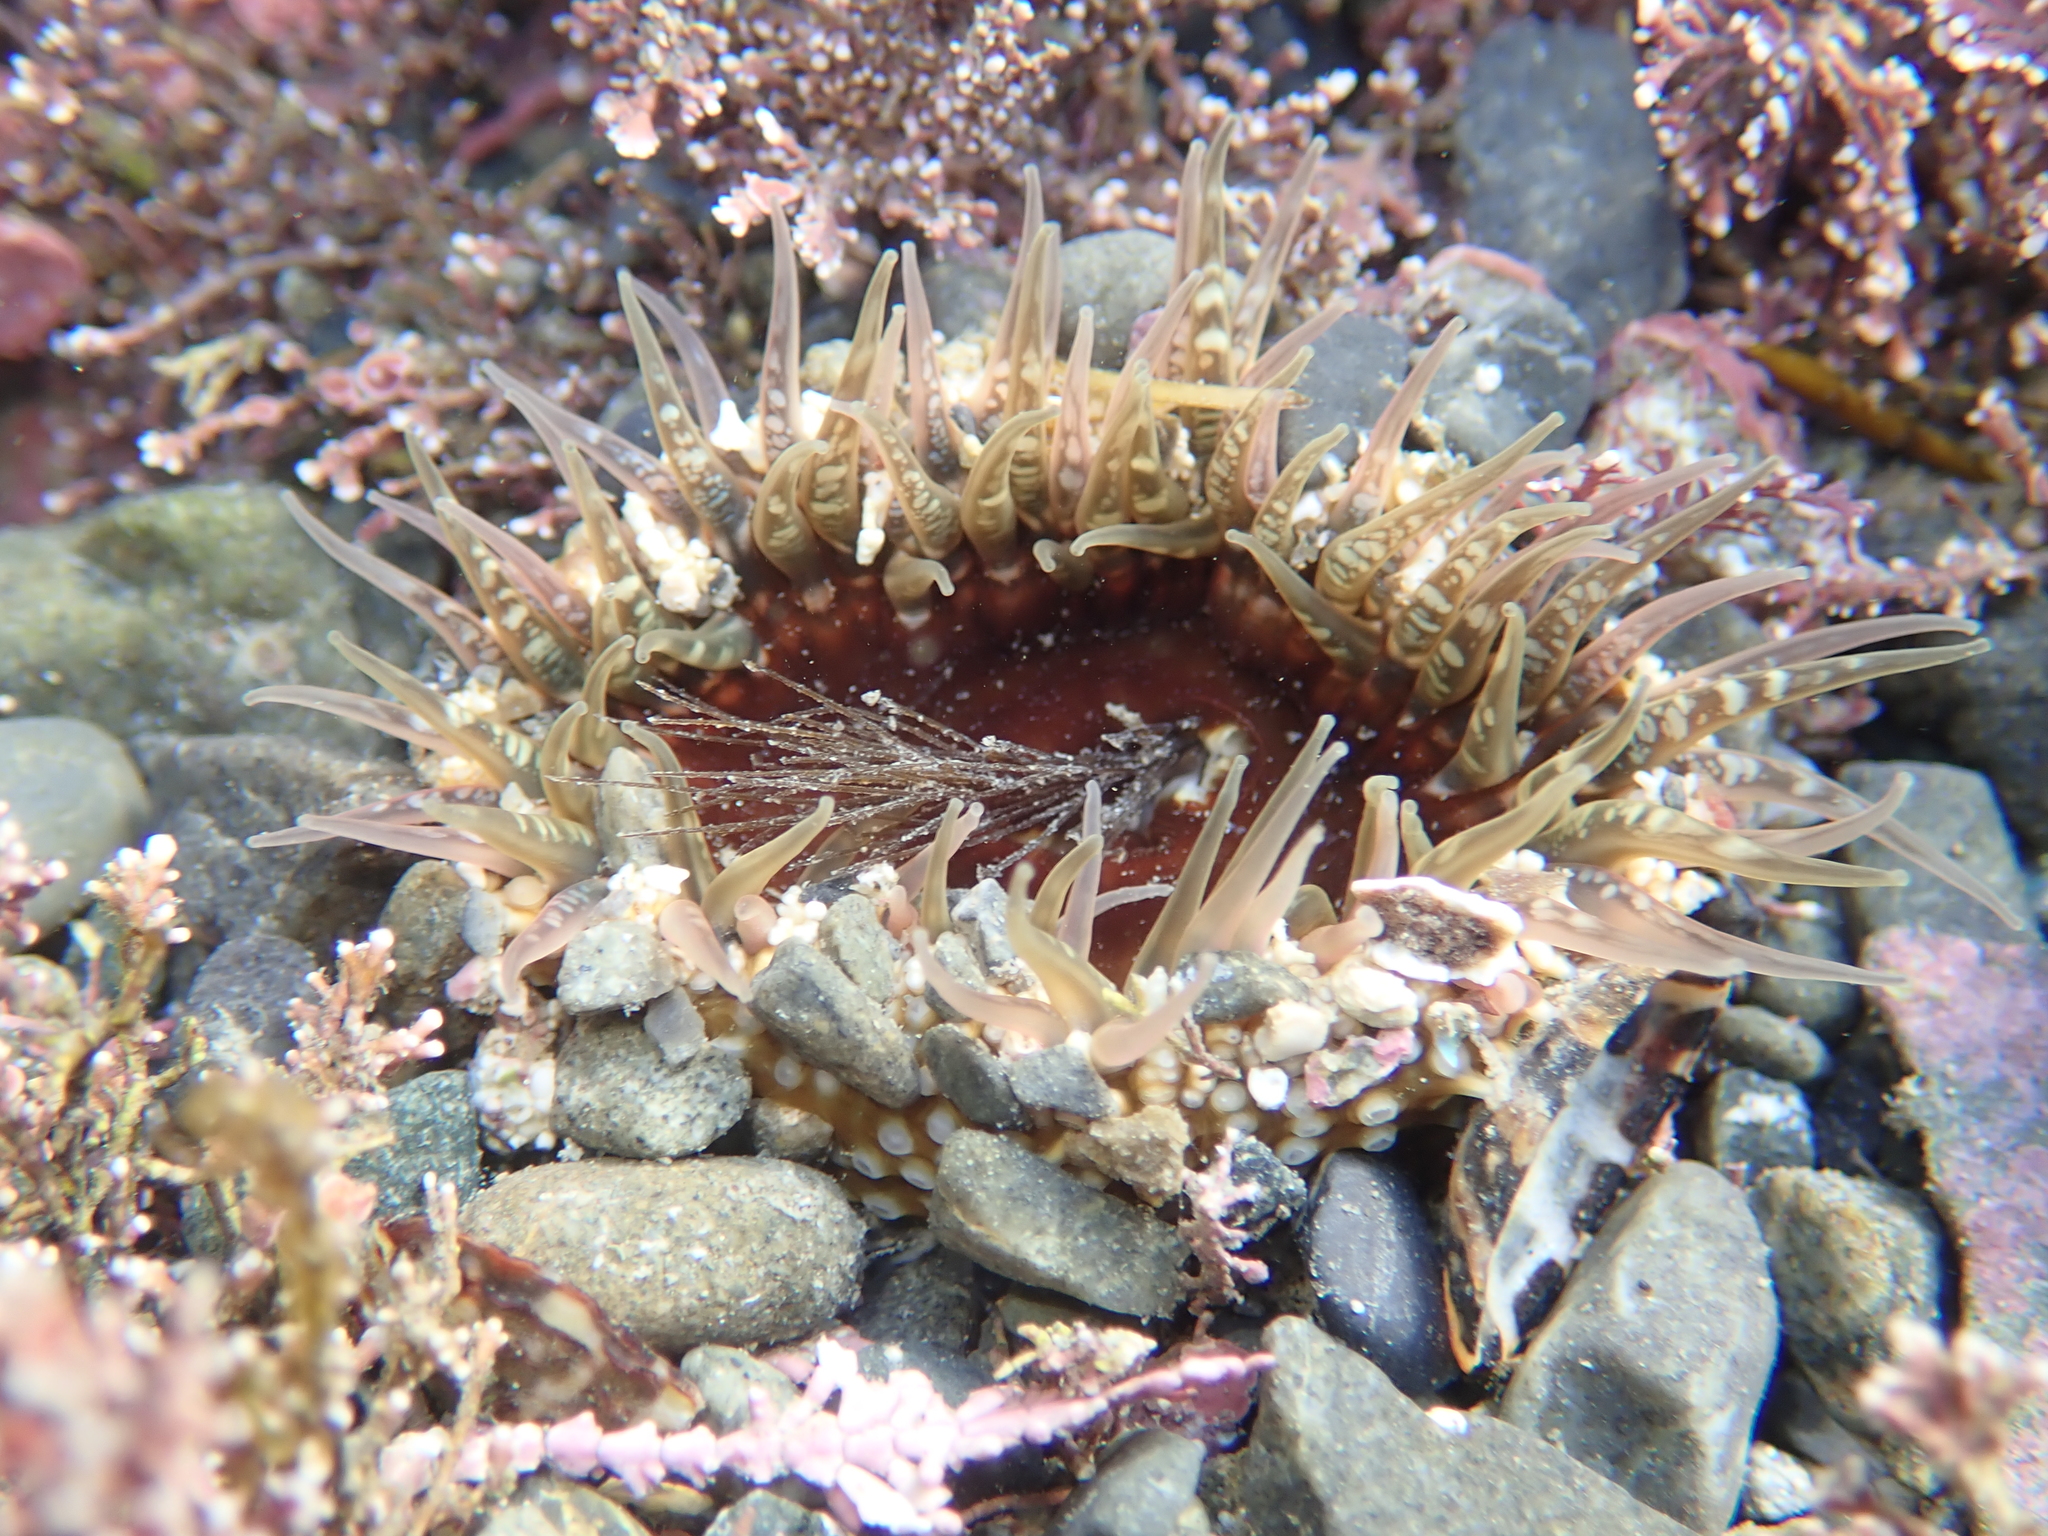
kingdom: Animalia
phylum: Cnidaria
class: Anthozoa
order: Actiniaria
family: Actiniidae
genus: Oulactis
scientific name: Oulactis muscosa
